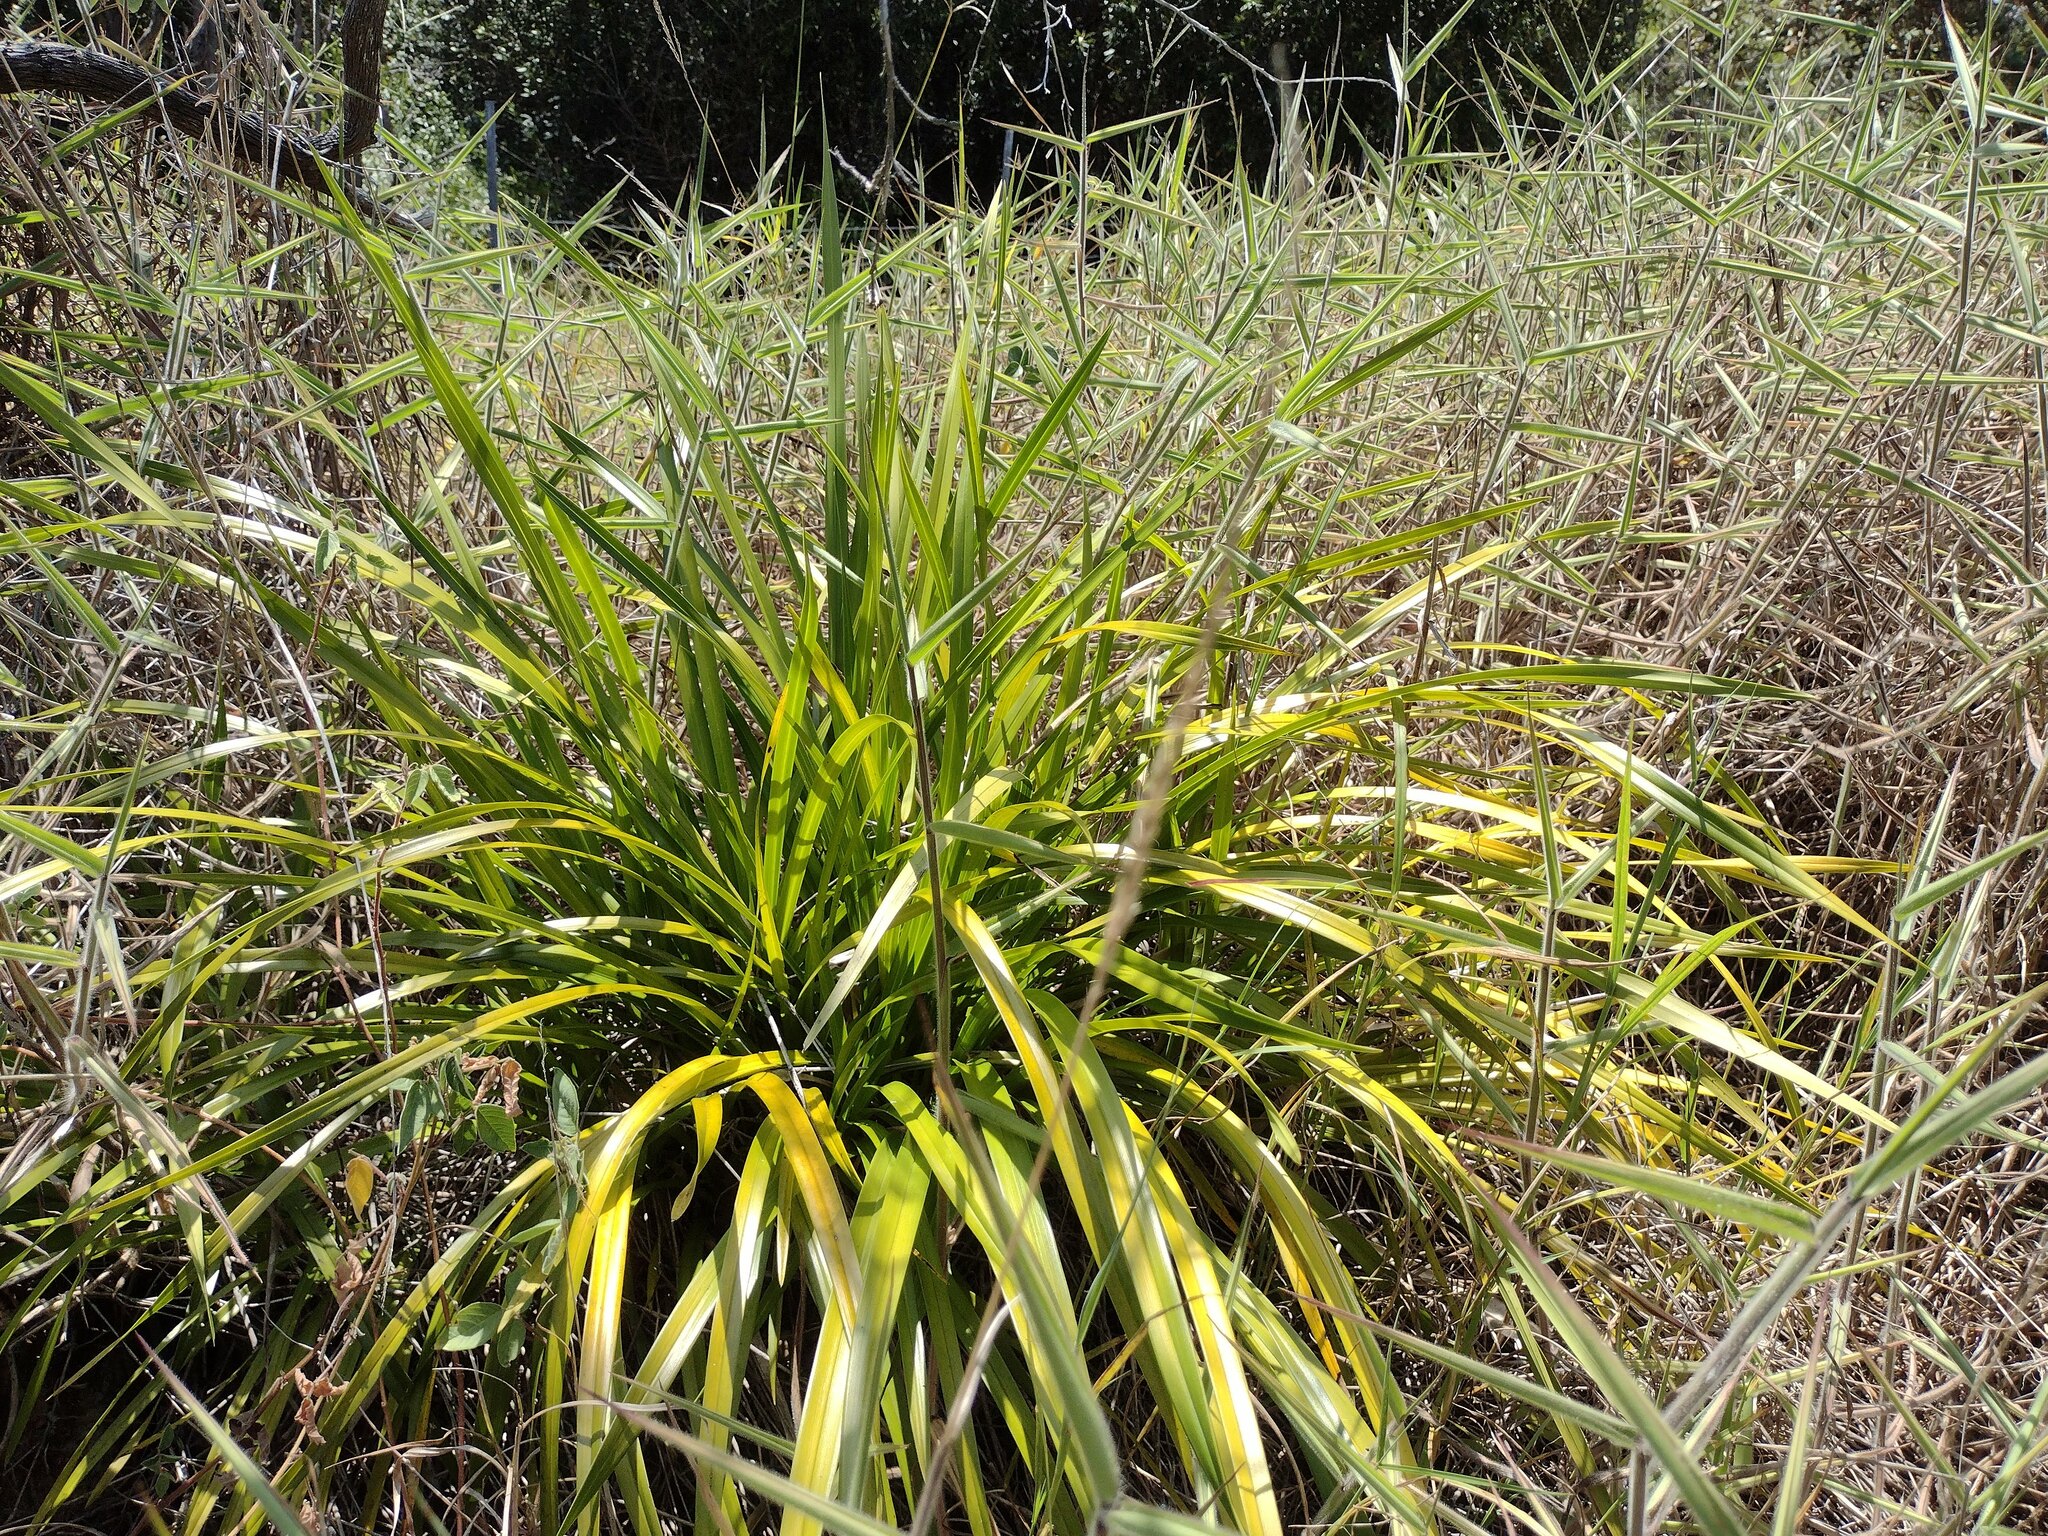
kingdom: Plantae
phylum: Tracheophyta
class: Liliopsida
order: Asparagales
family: Orchidaceae
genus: Cymbidium
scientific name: Cymbidium dayanum
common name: Orchid
